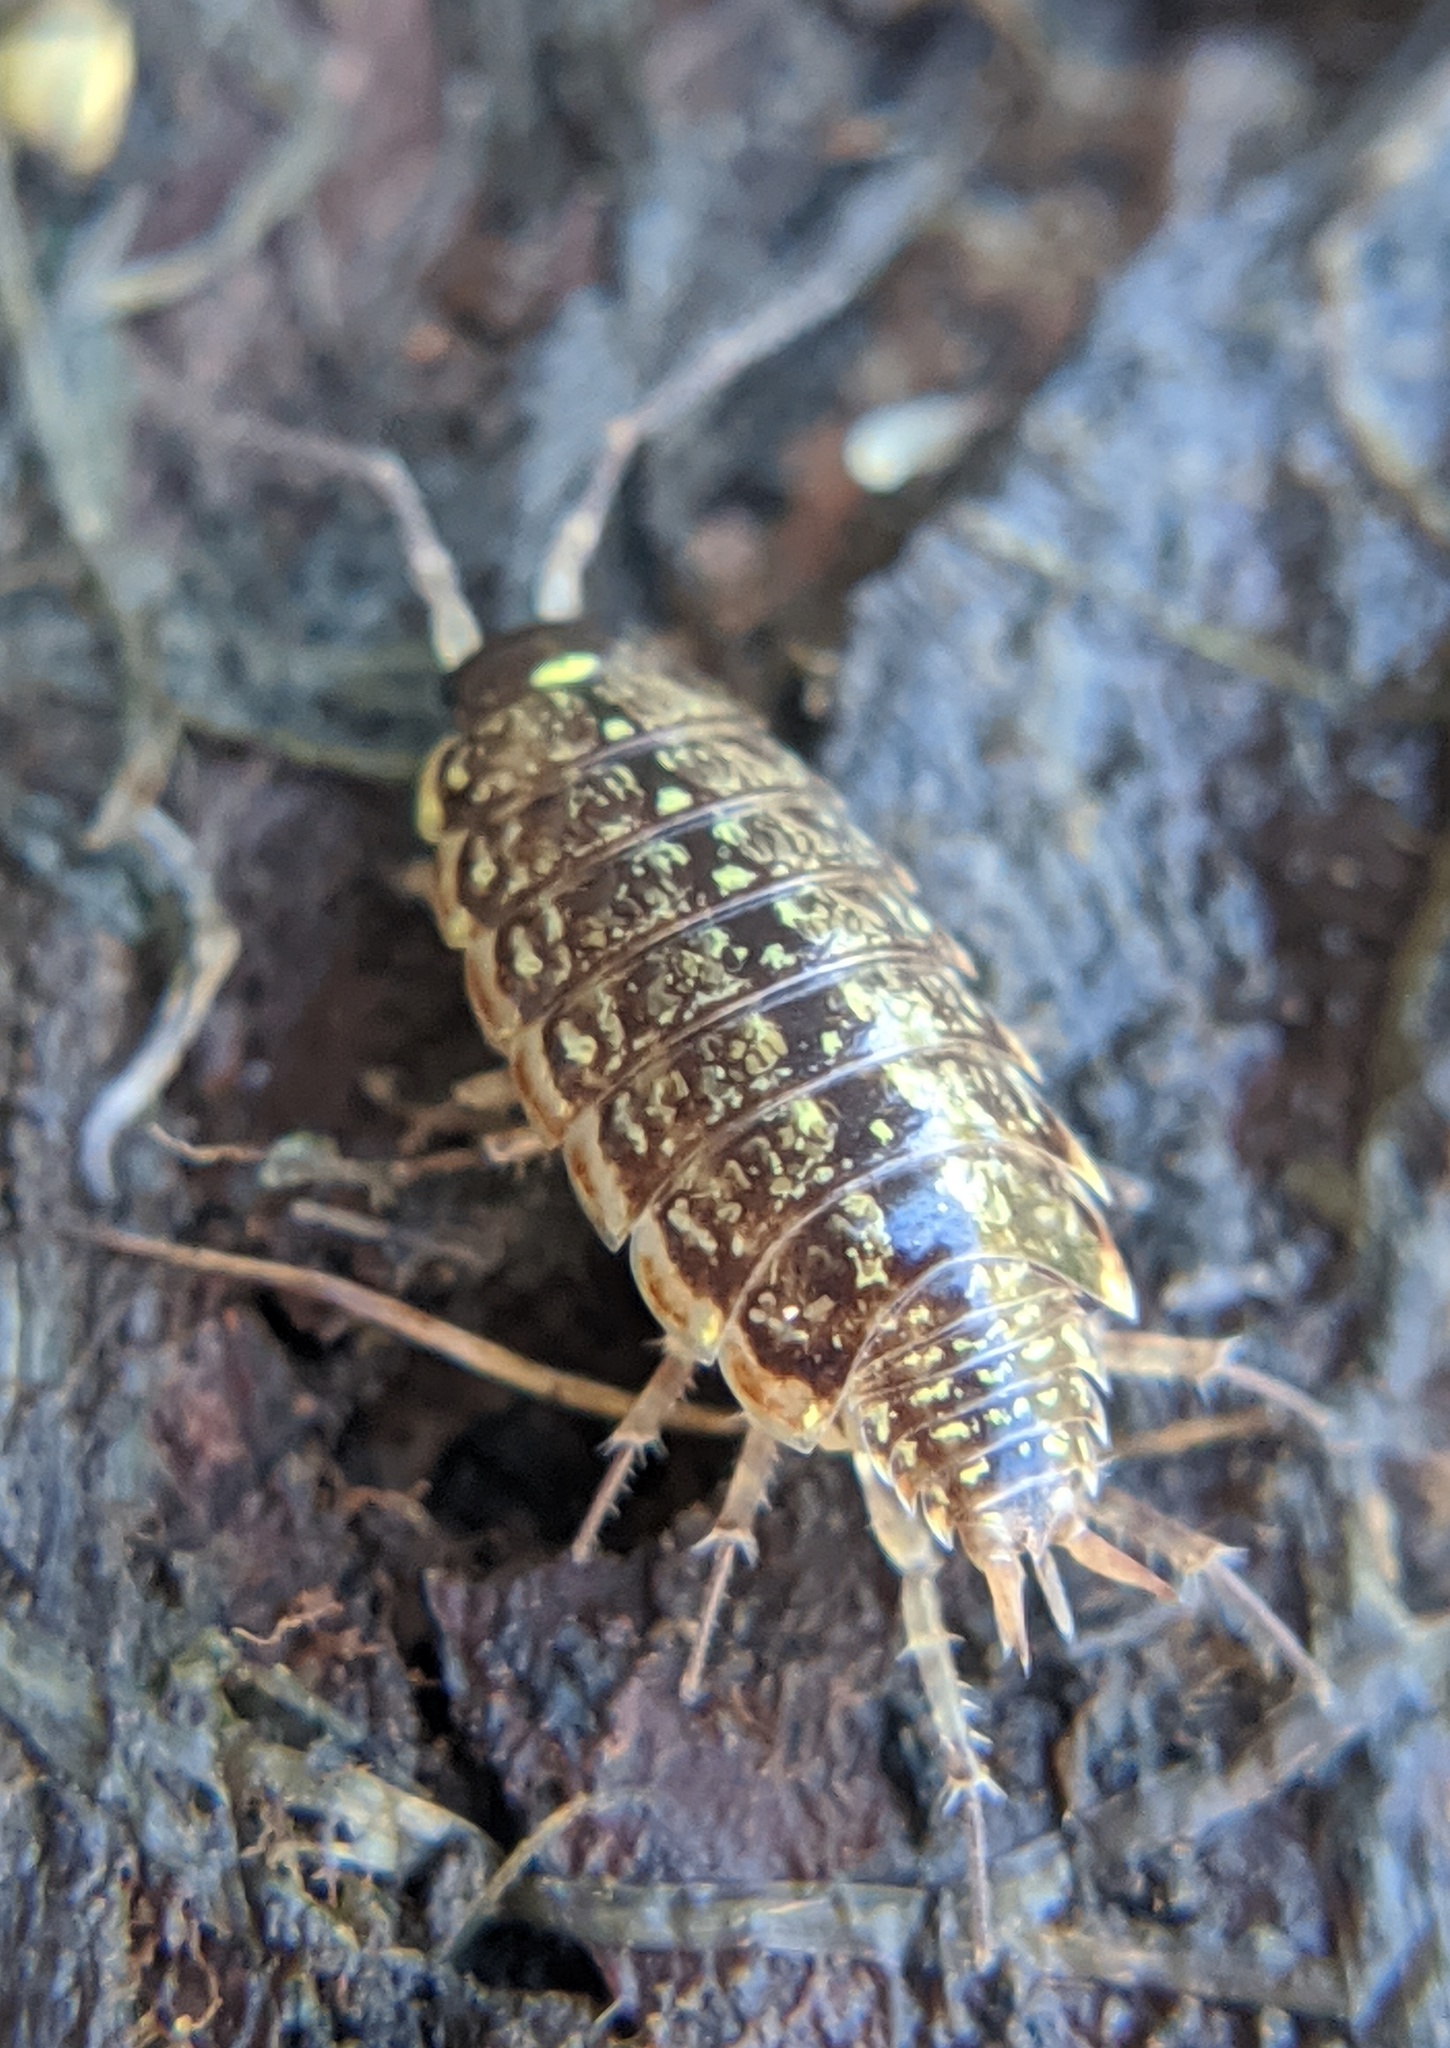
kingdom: Animalia
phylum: Arthropoda
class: Malacostraca
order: Isopoda
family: Philosciidae
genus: Philoscia
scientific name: Philoscia muscorum
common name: Common striped woodlouse
